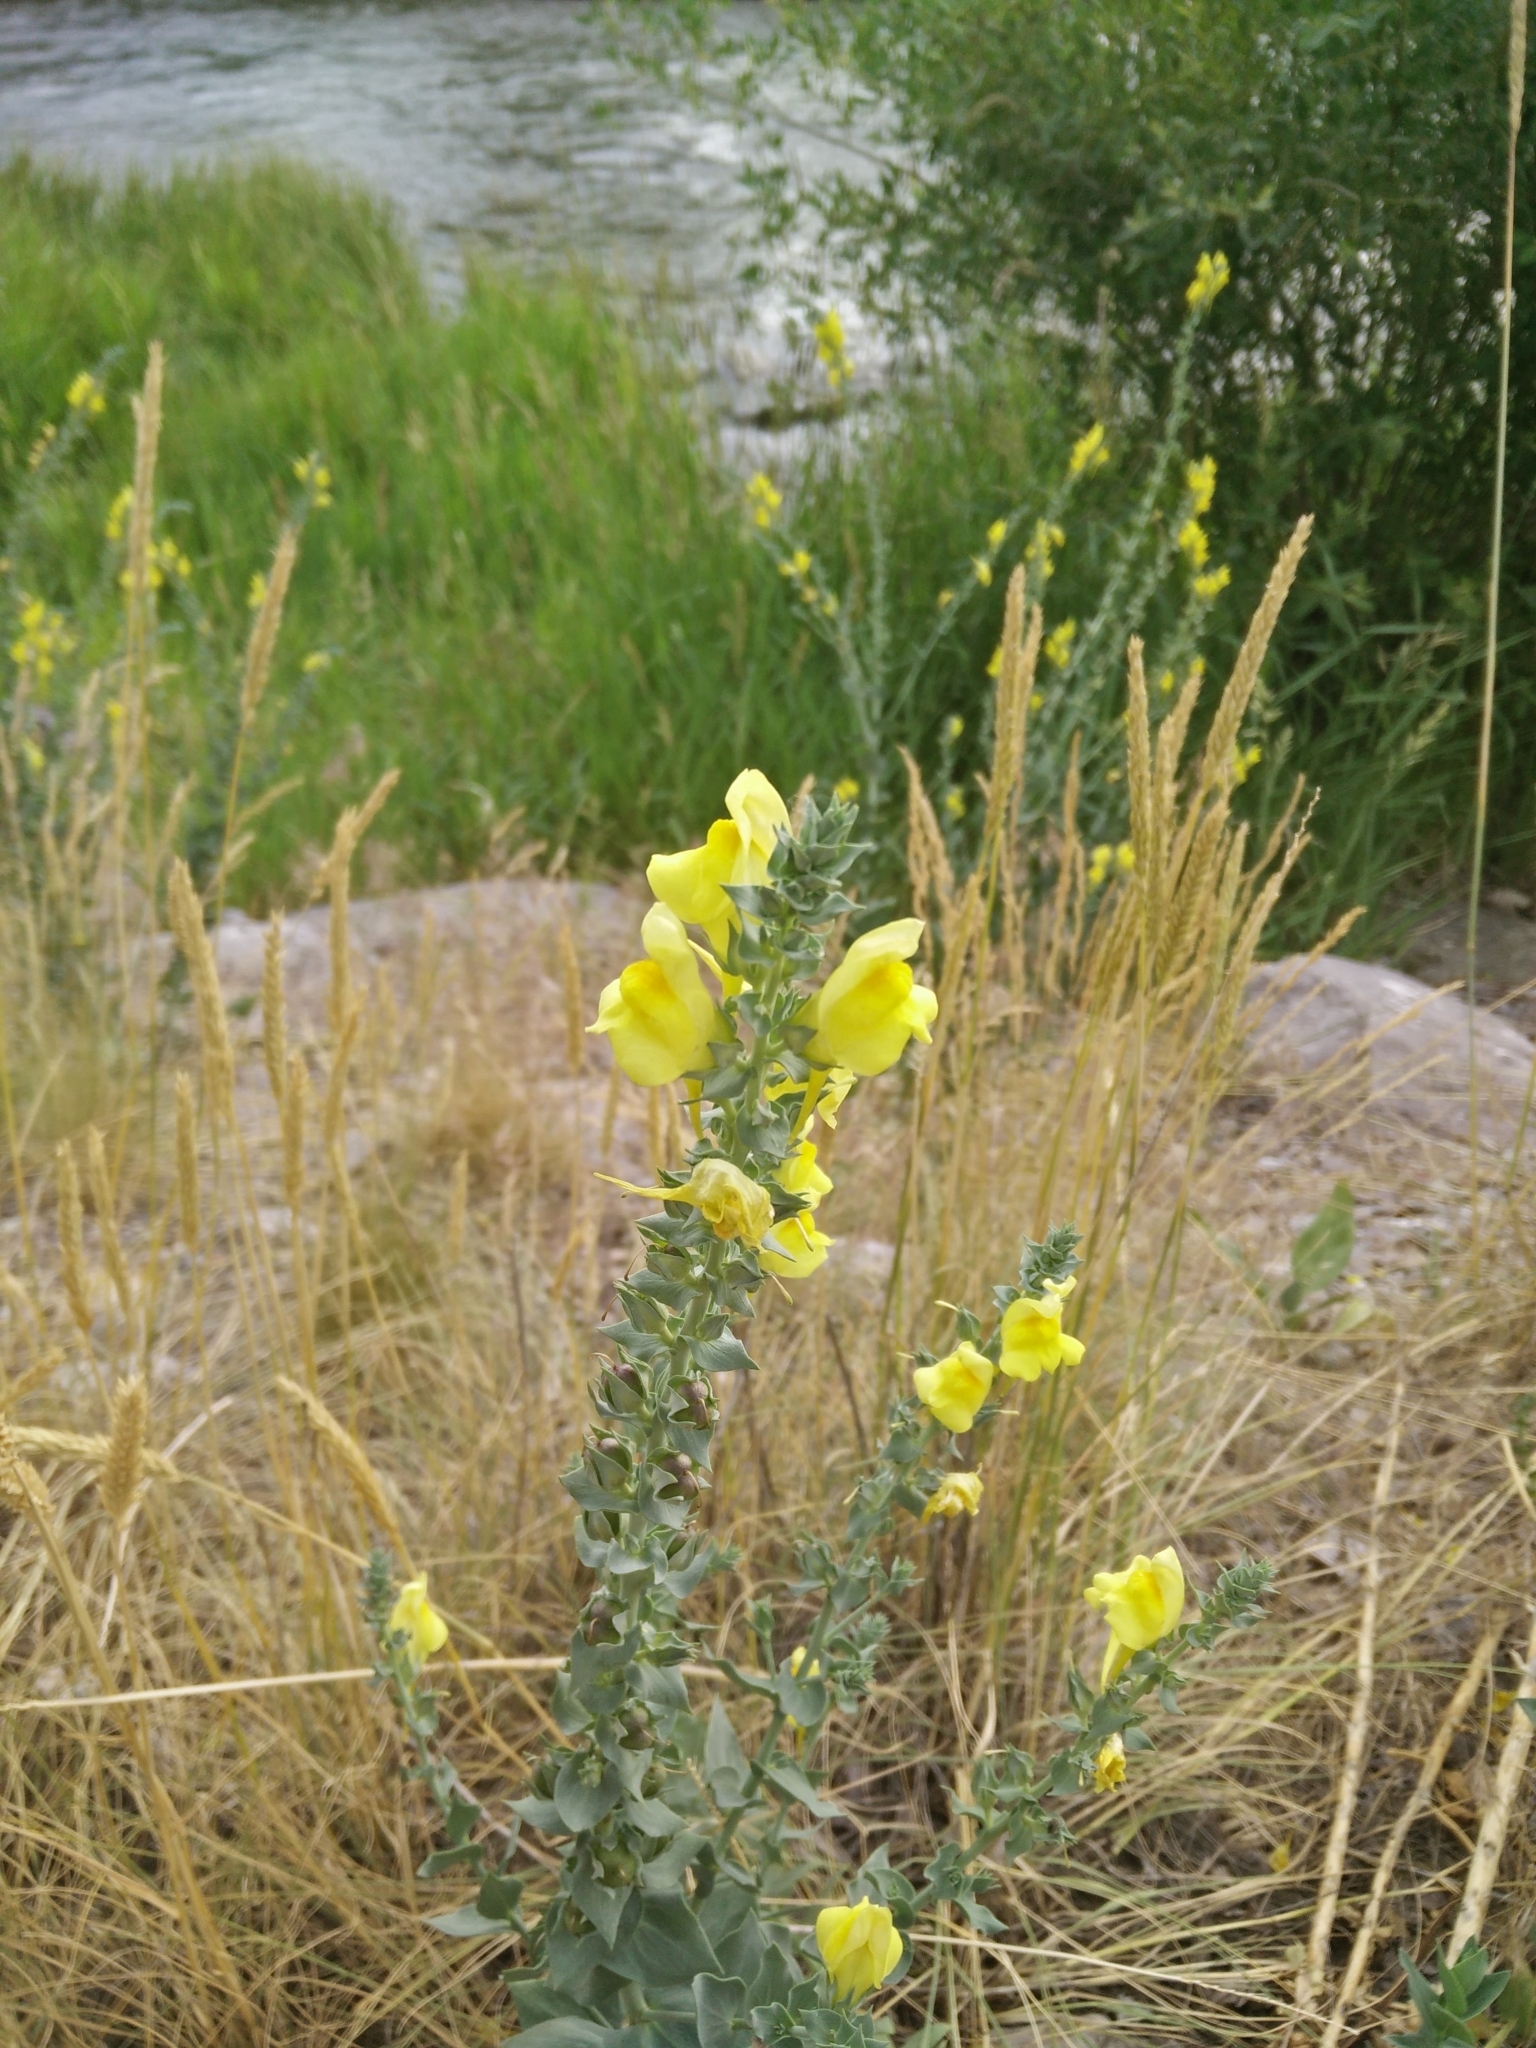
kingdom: Plantae
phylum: Tracheophyta
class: Magnoliopsida
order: Lamiales
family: Plantaginaceae
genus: Linaria
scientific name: Linaria dalmatica
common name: Dalmatian toadflax
